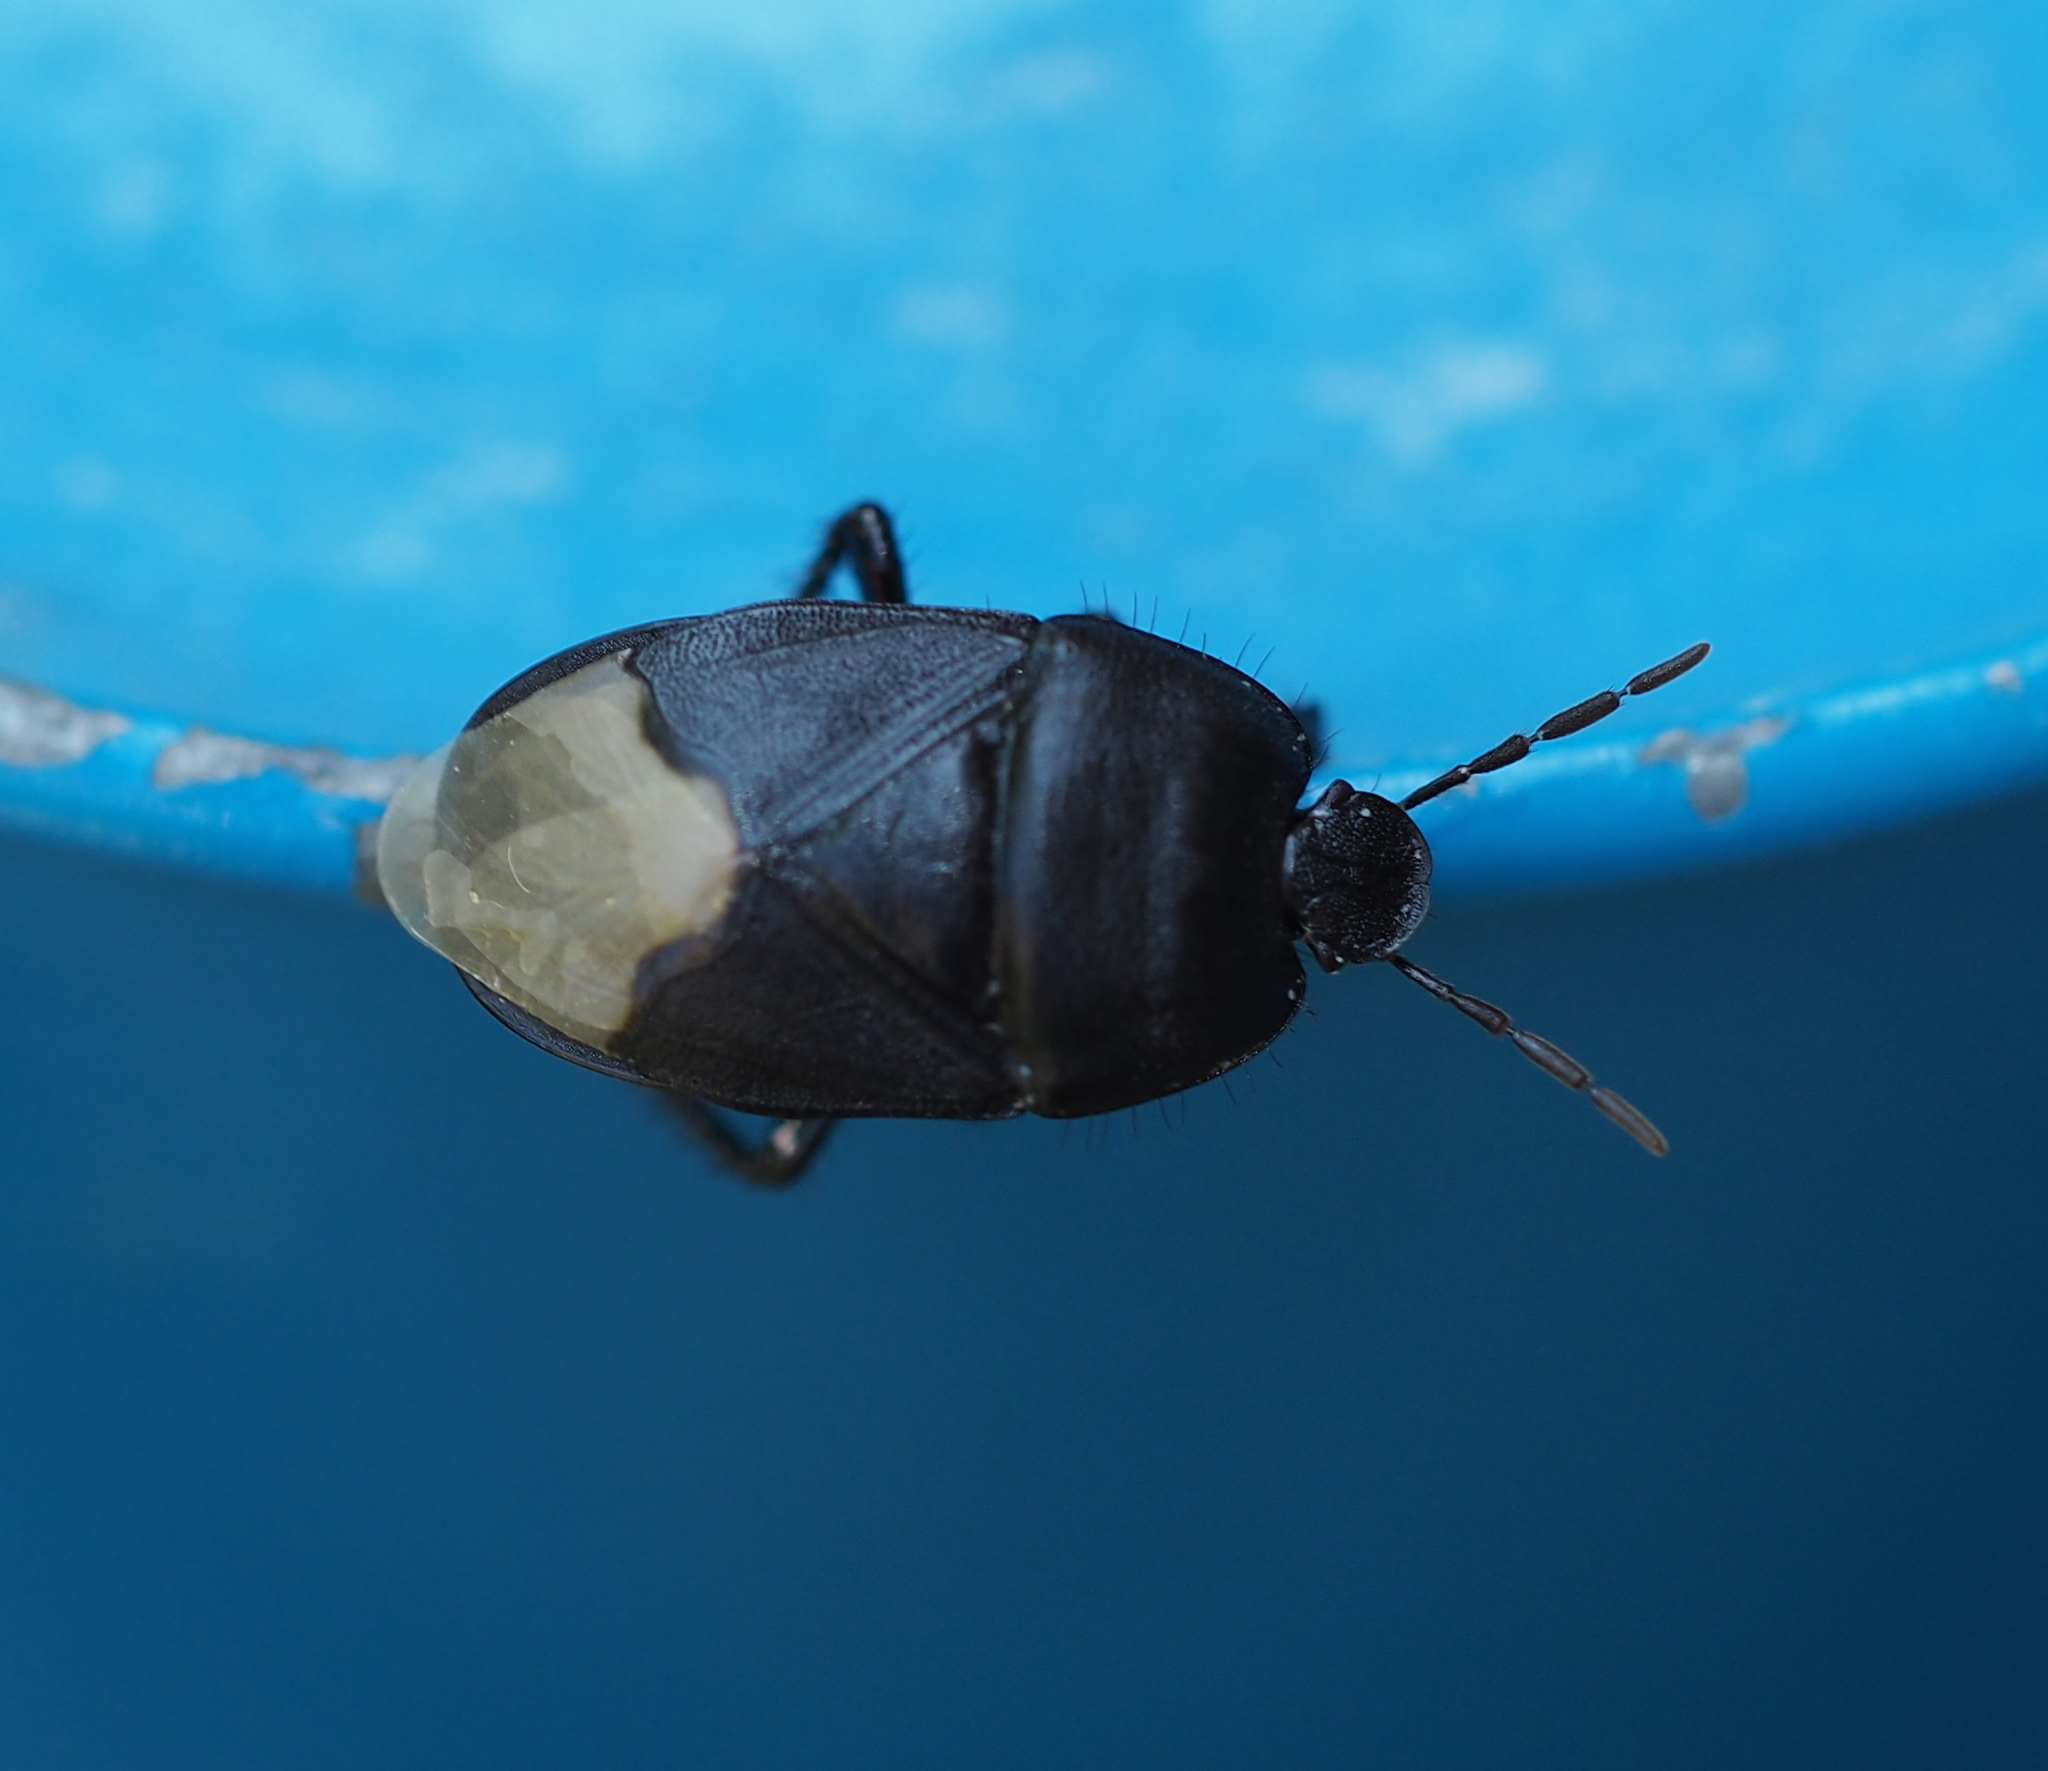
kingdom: Animalia
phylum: Arthropoda
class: Insecta
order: Hemiptera
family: Cydnidae
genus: Cydnus
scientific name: Cydnus aterrimus
